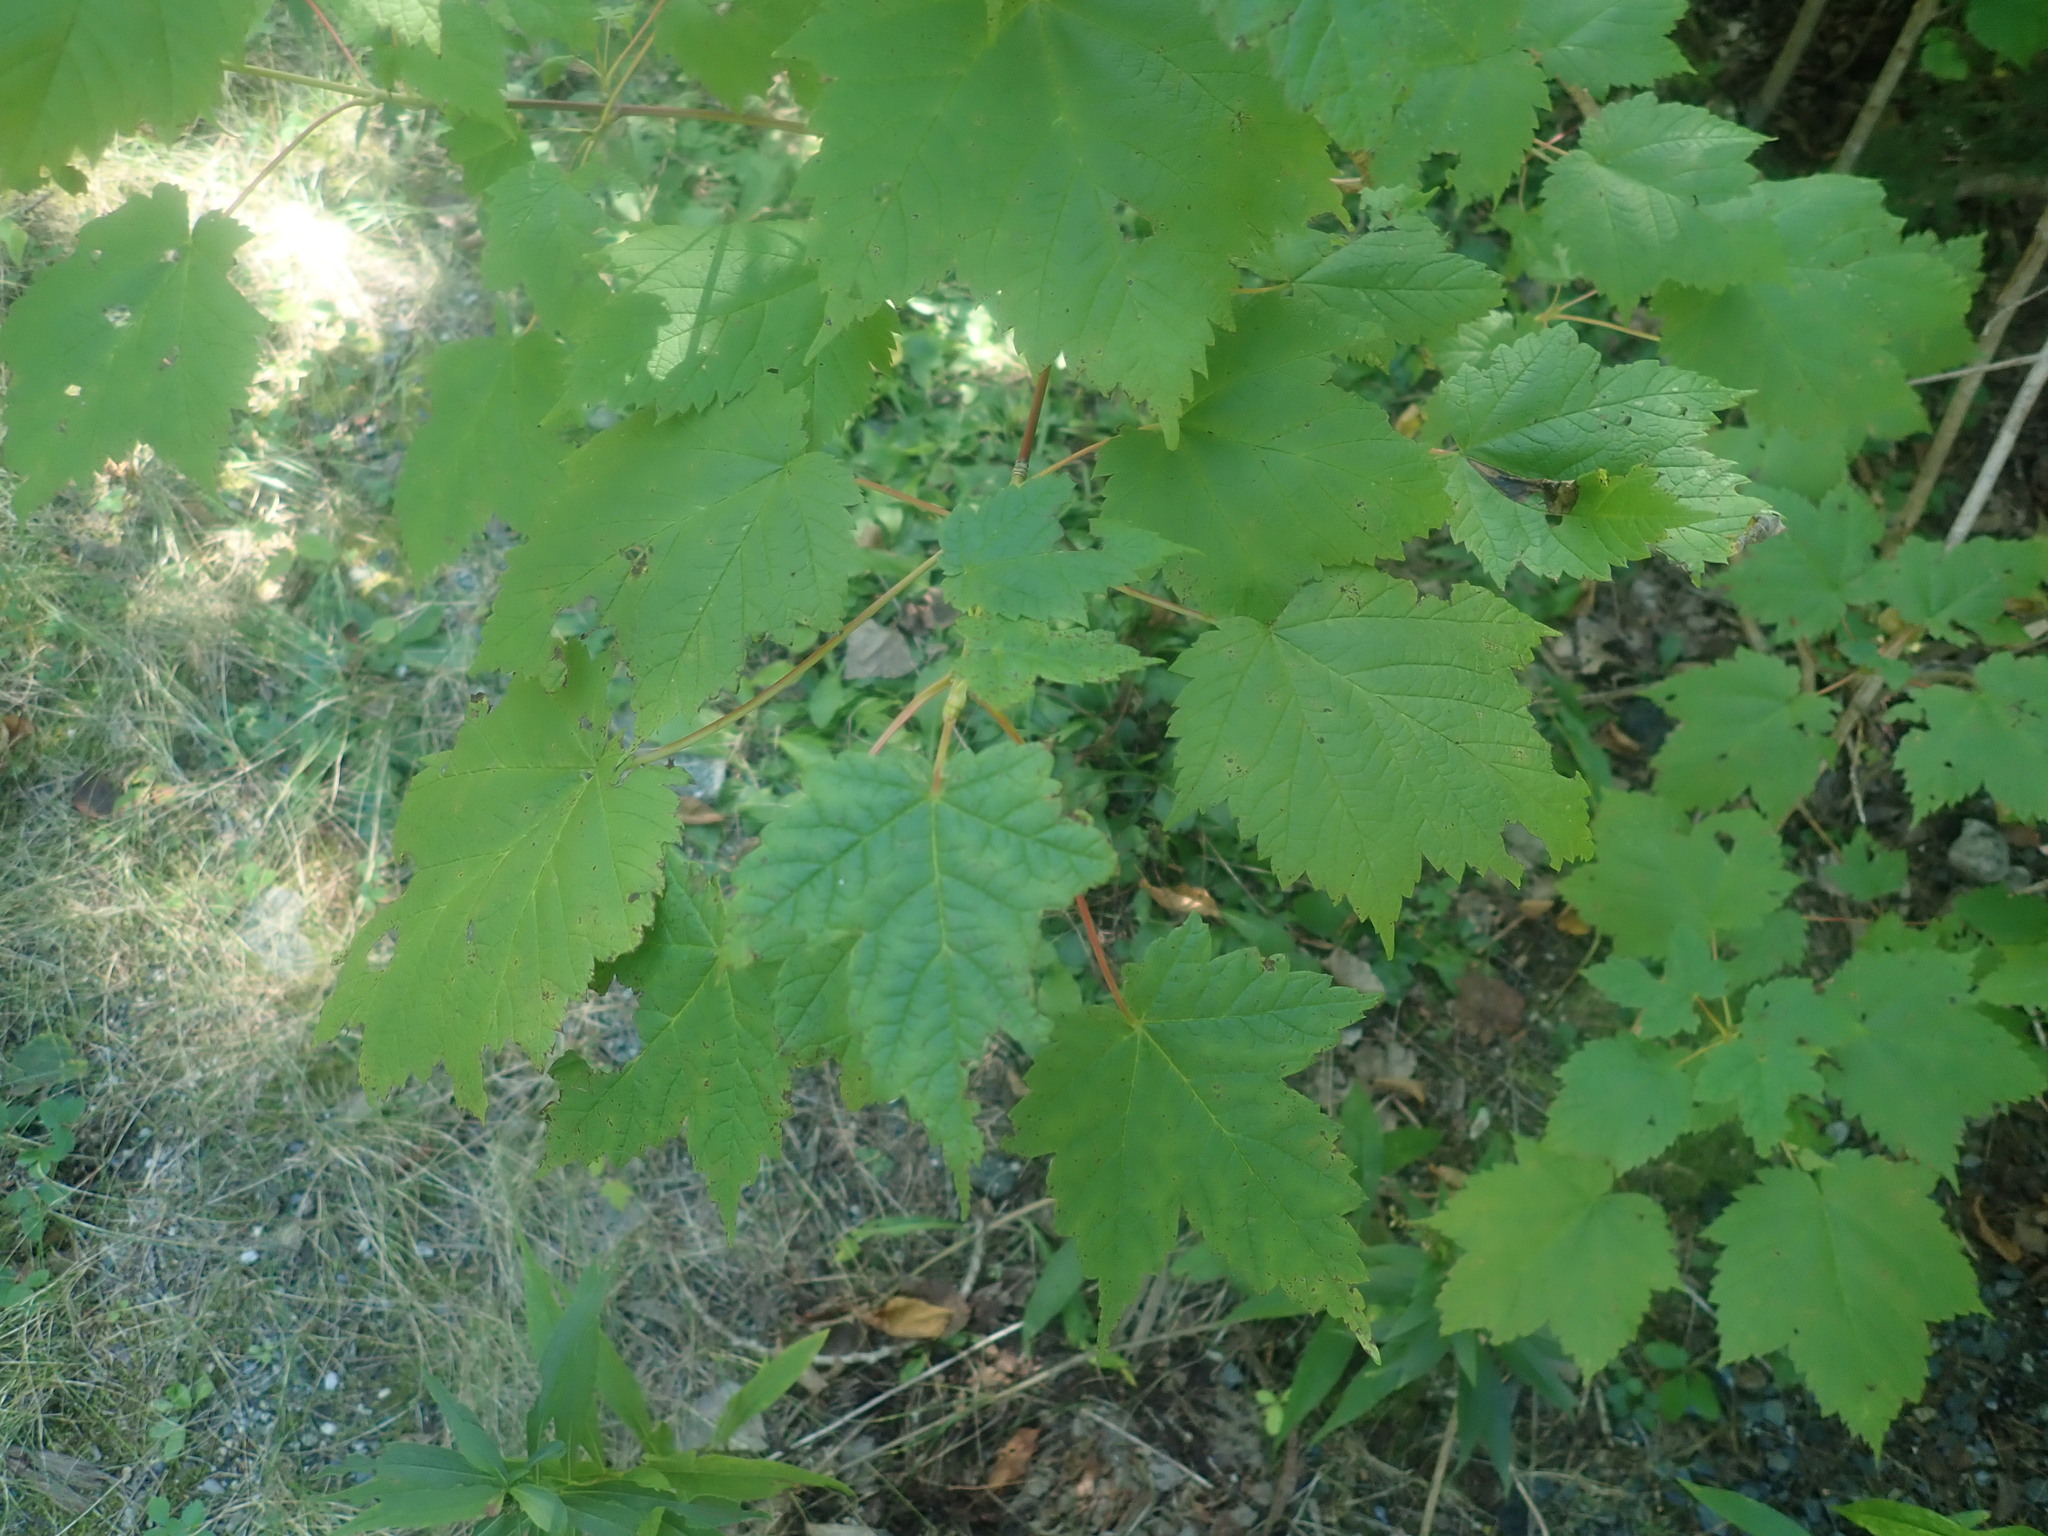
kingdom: Plantae
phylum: Tracheophyta
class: Magnoliopsida
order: Sapindales
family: Sapindaceae
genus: Acer
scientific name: Acer spicatum
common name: Mountain maple
